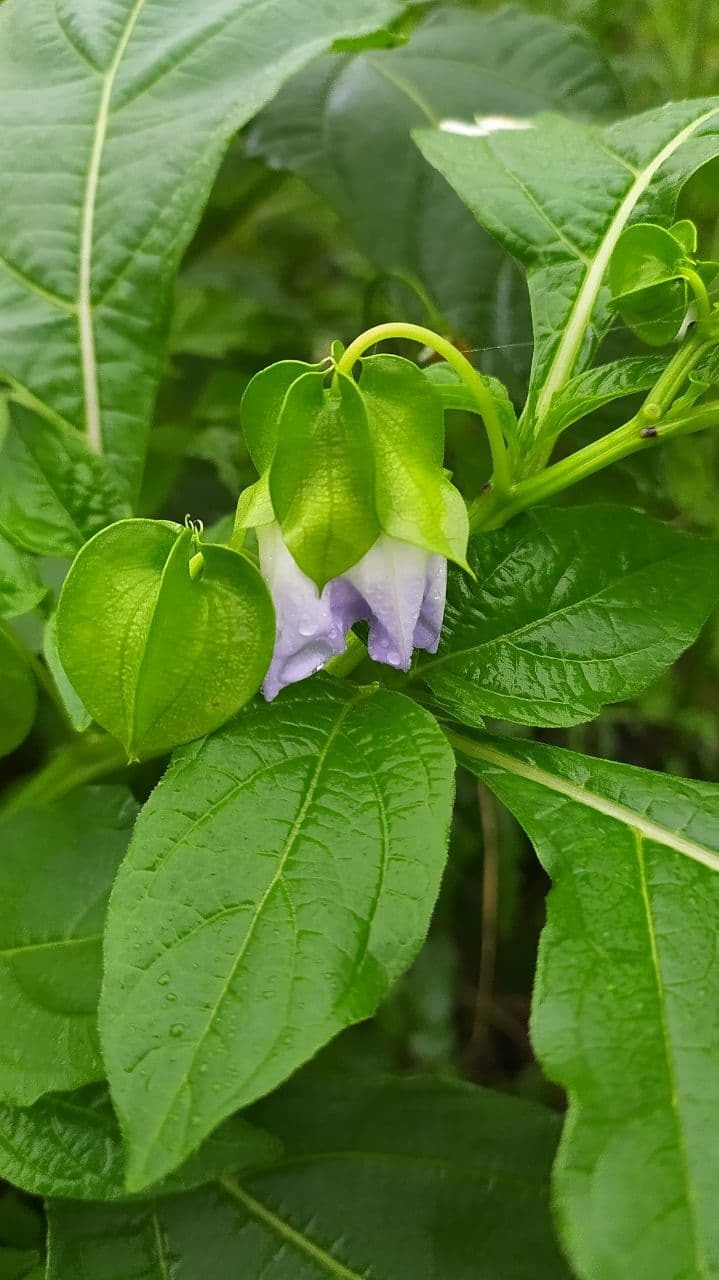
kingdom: Plantae
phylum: Tracheophyta
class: Magnoliopsida
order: Solanales
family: Solanaceae
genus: Nicandra
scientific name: Nicandra physalodes
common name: Apple-of-peru
